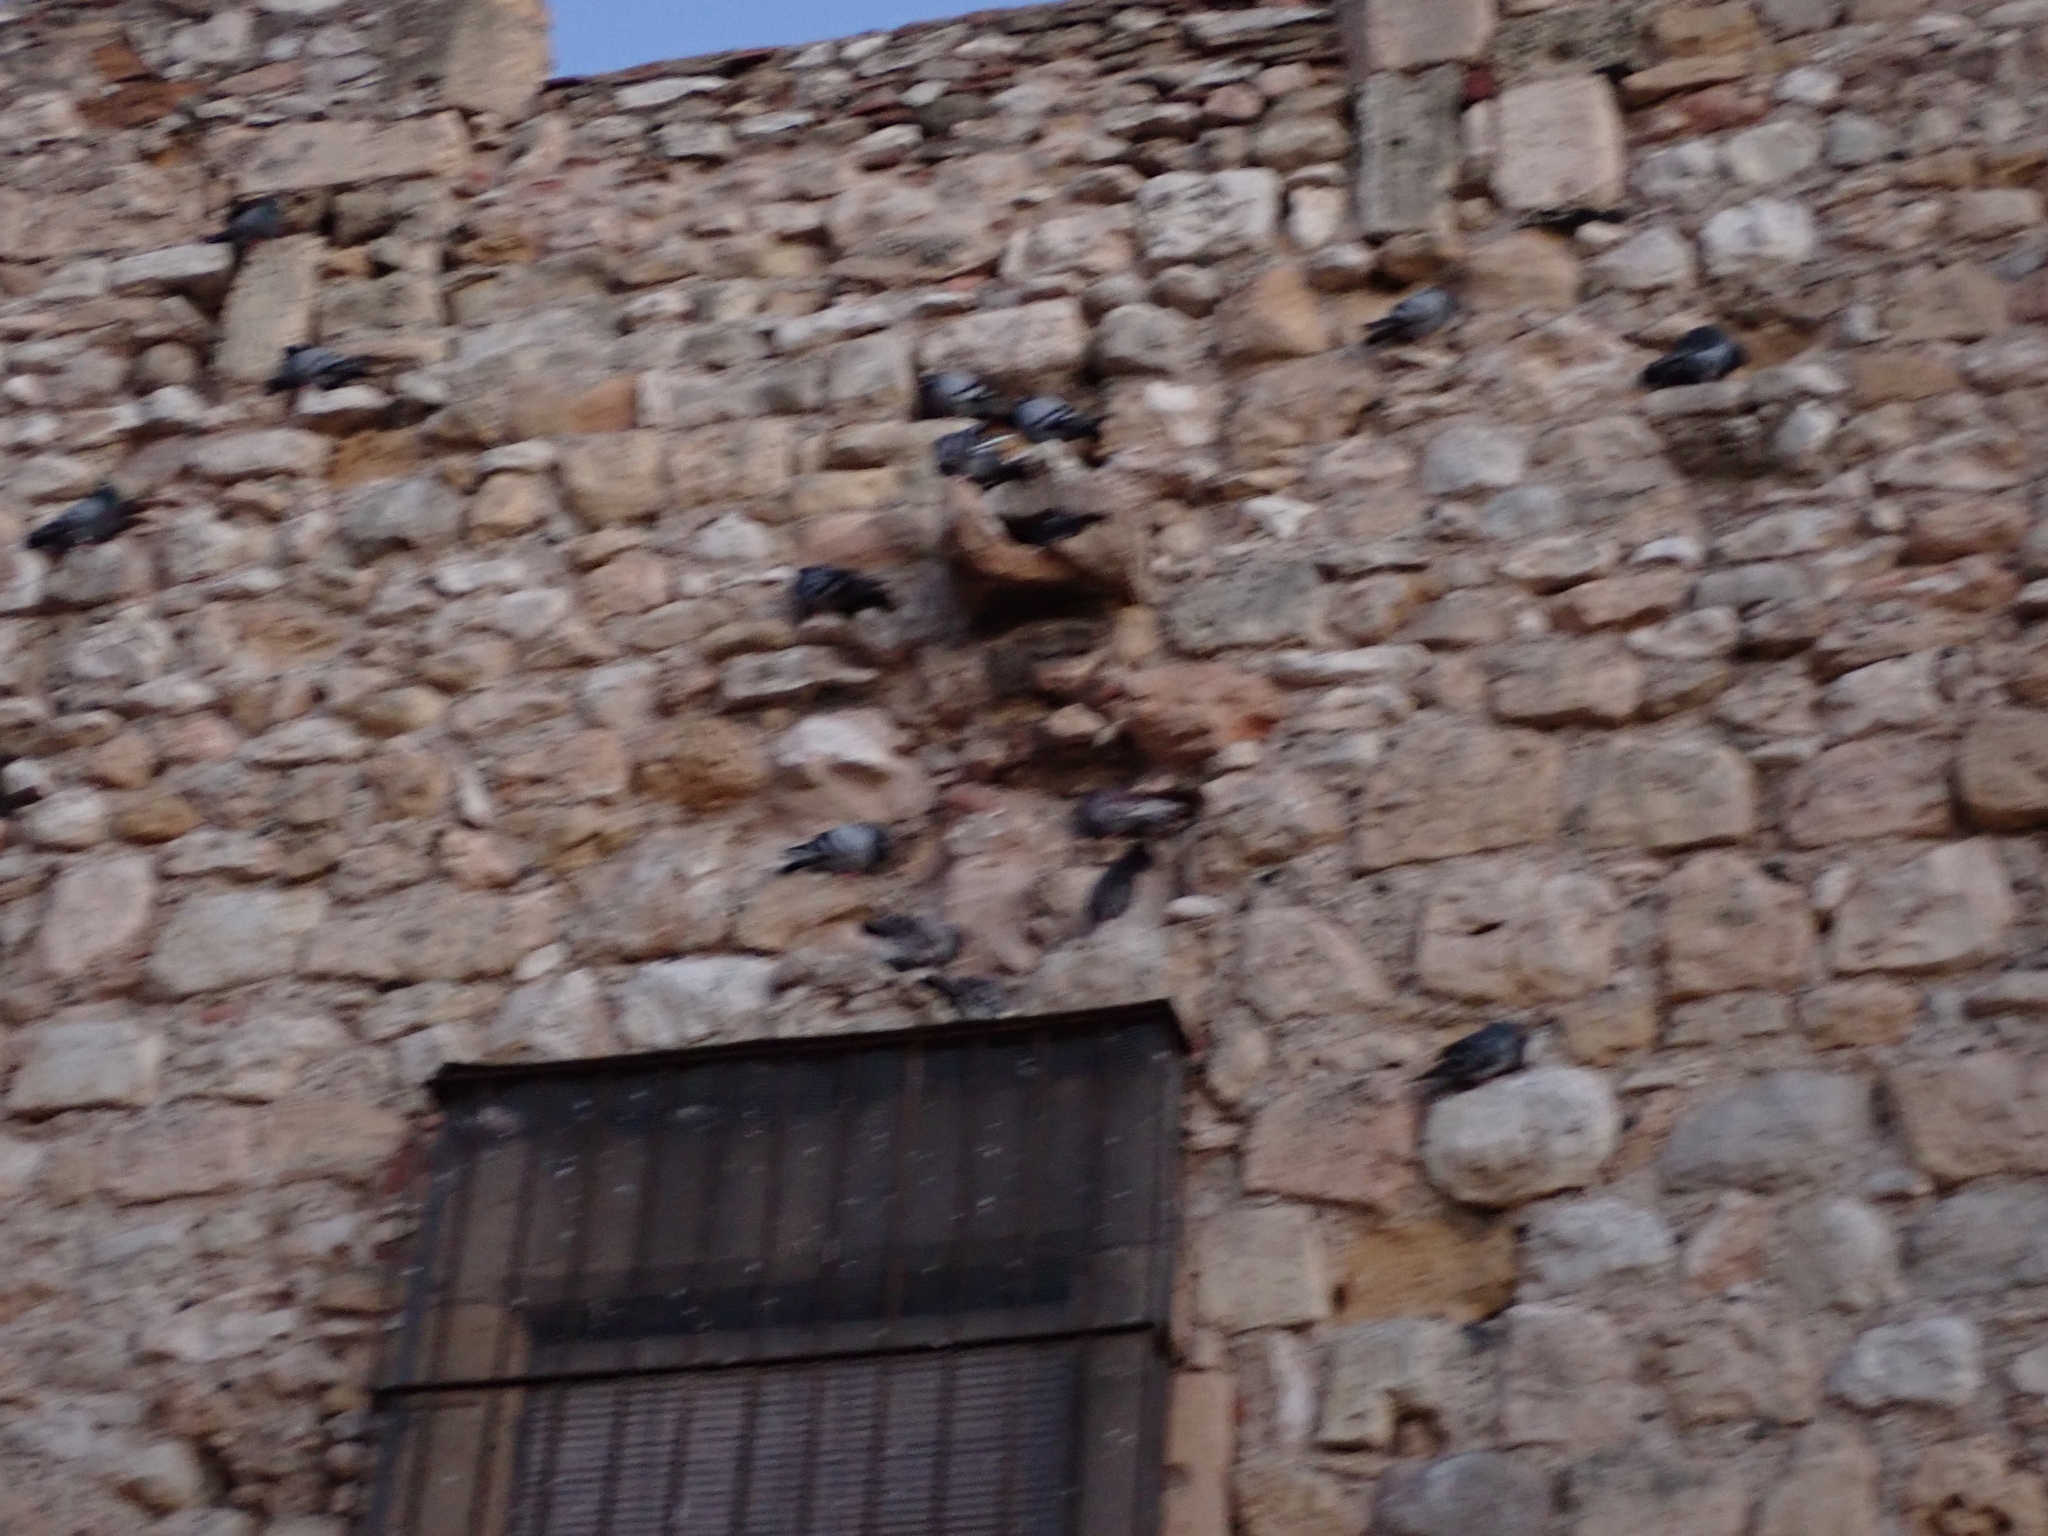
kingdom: Animalia
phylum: Chordata
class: Aves
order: Columbiformes
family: Columbidae
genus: Columba
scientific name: Columba livia
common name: Rock pigeon
